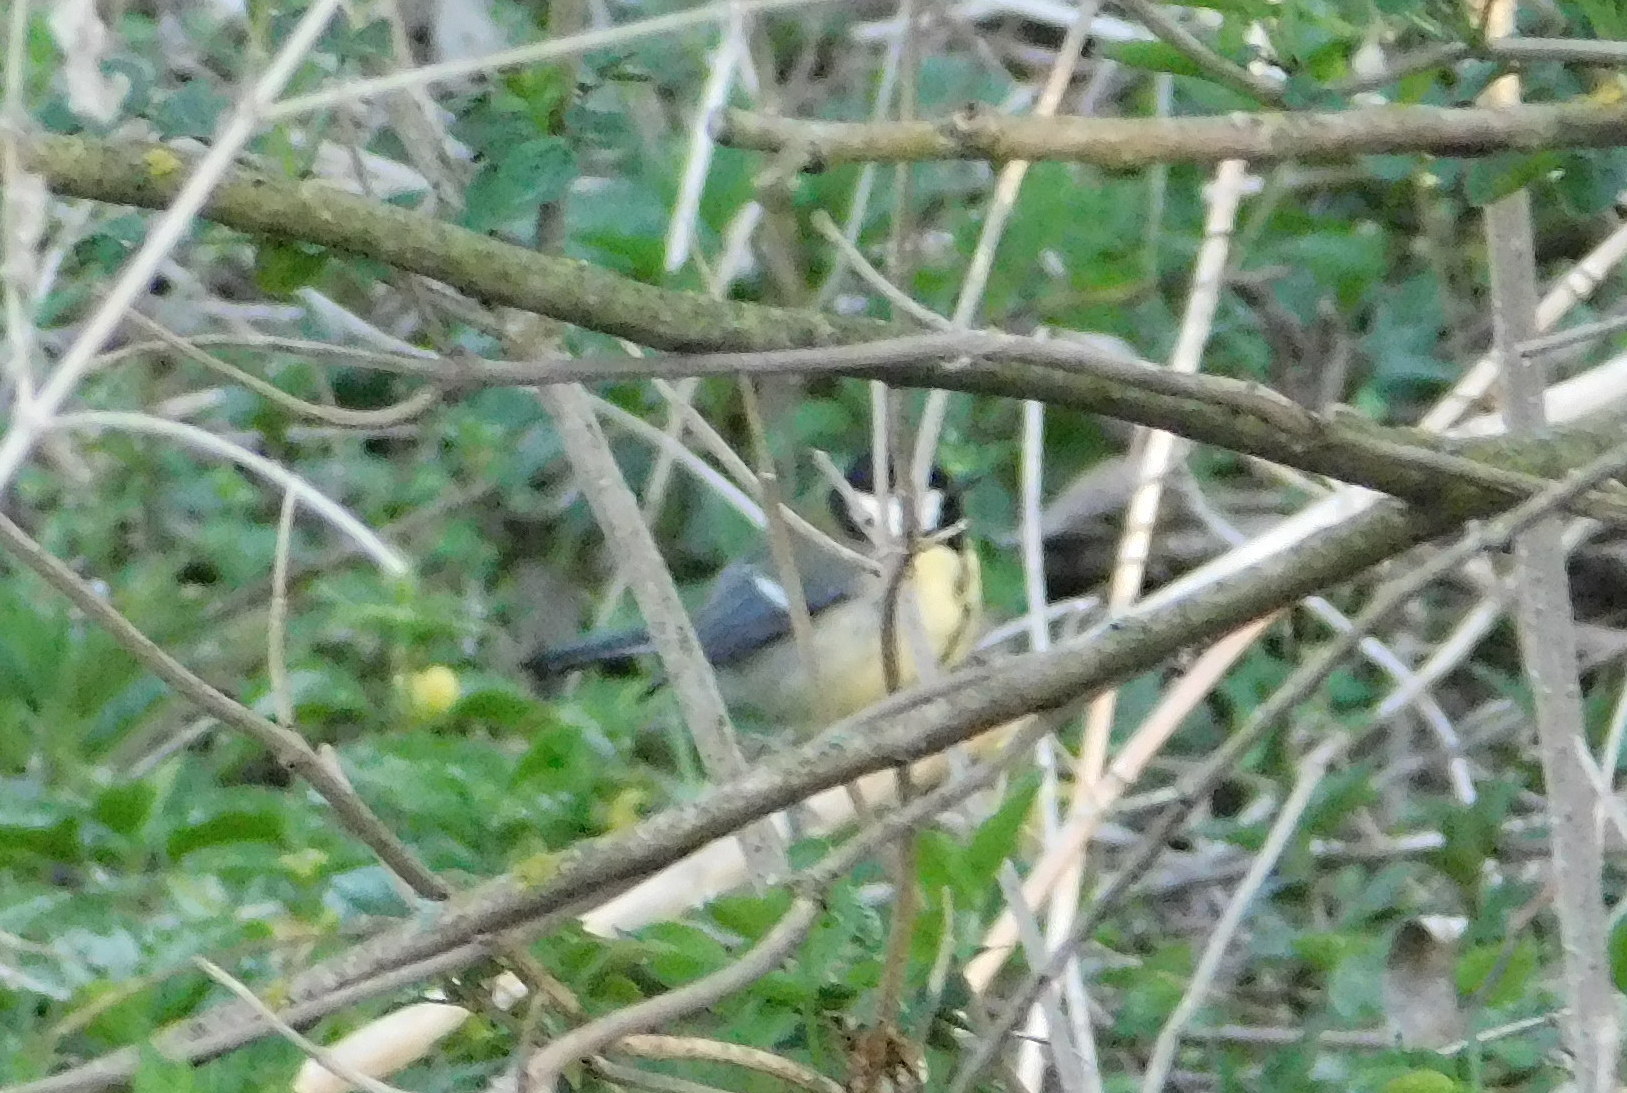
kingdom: Animalia
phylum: Chordata
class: Aves
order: Passeriformes
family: Paridae
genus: Parus
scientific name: Parus major
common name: Great tit
